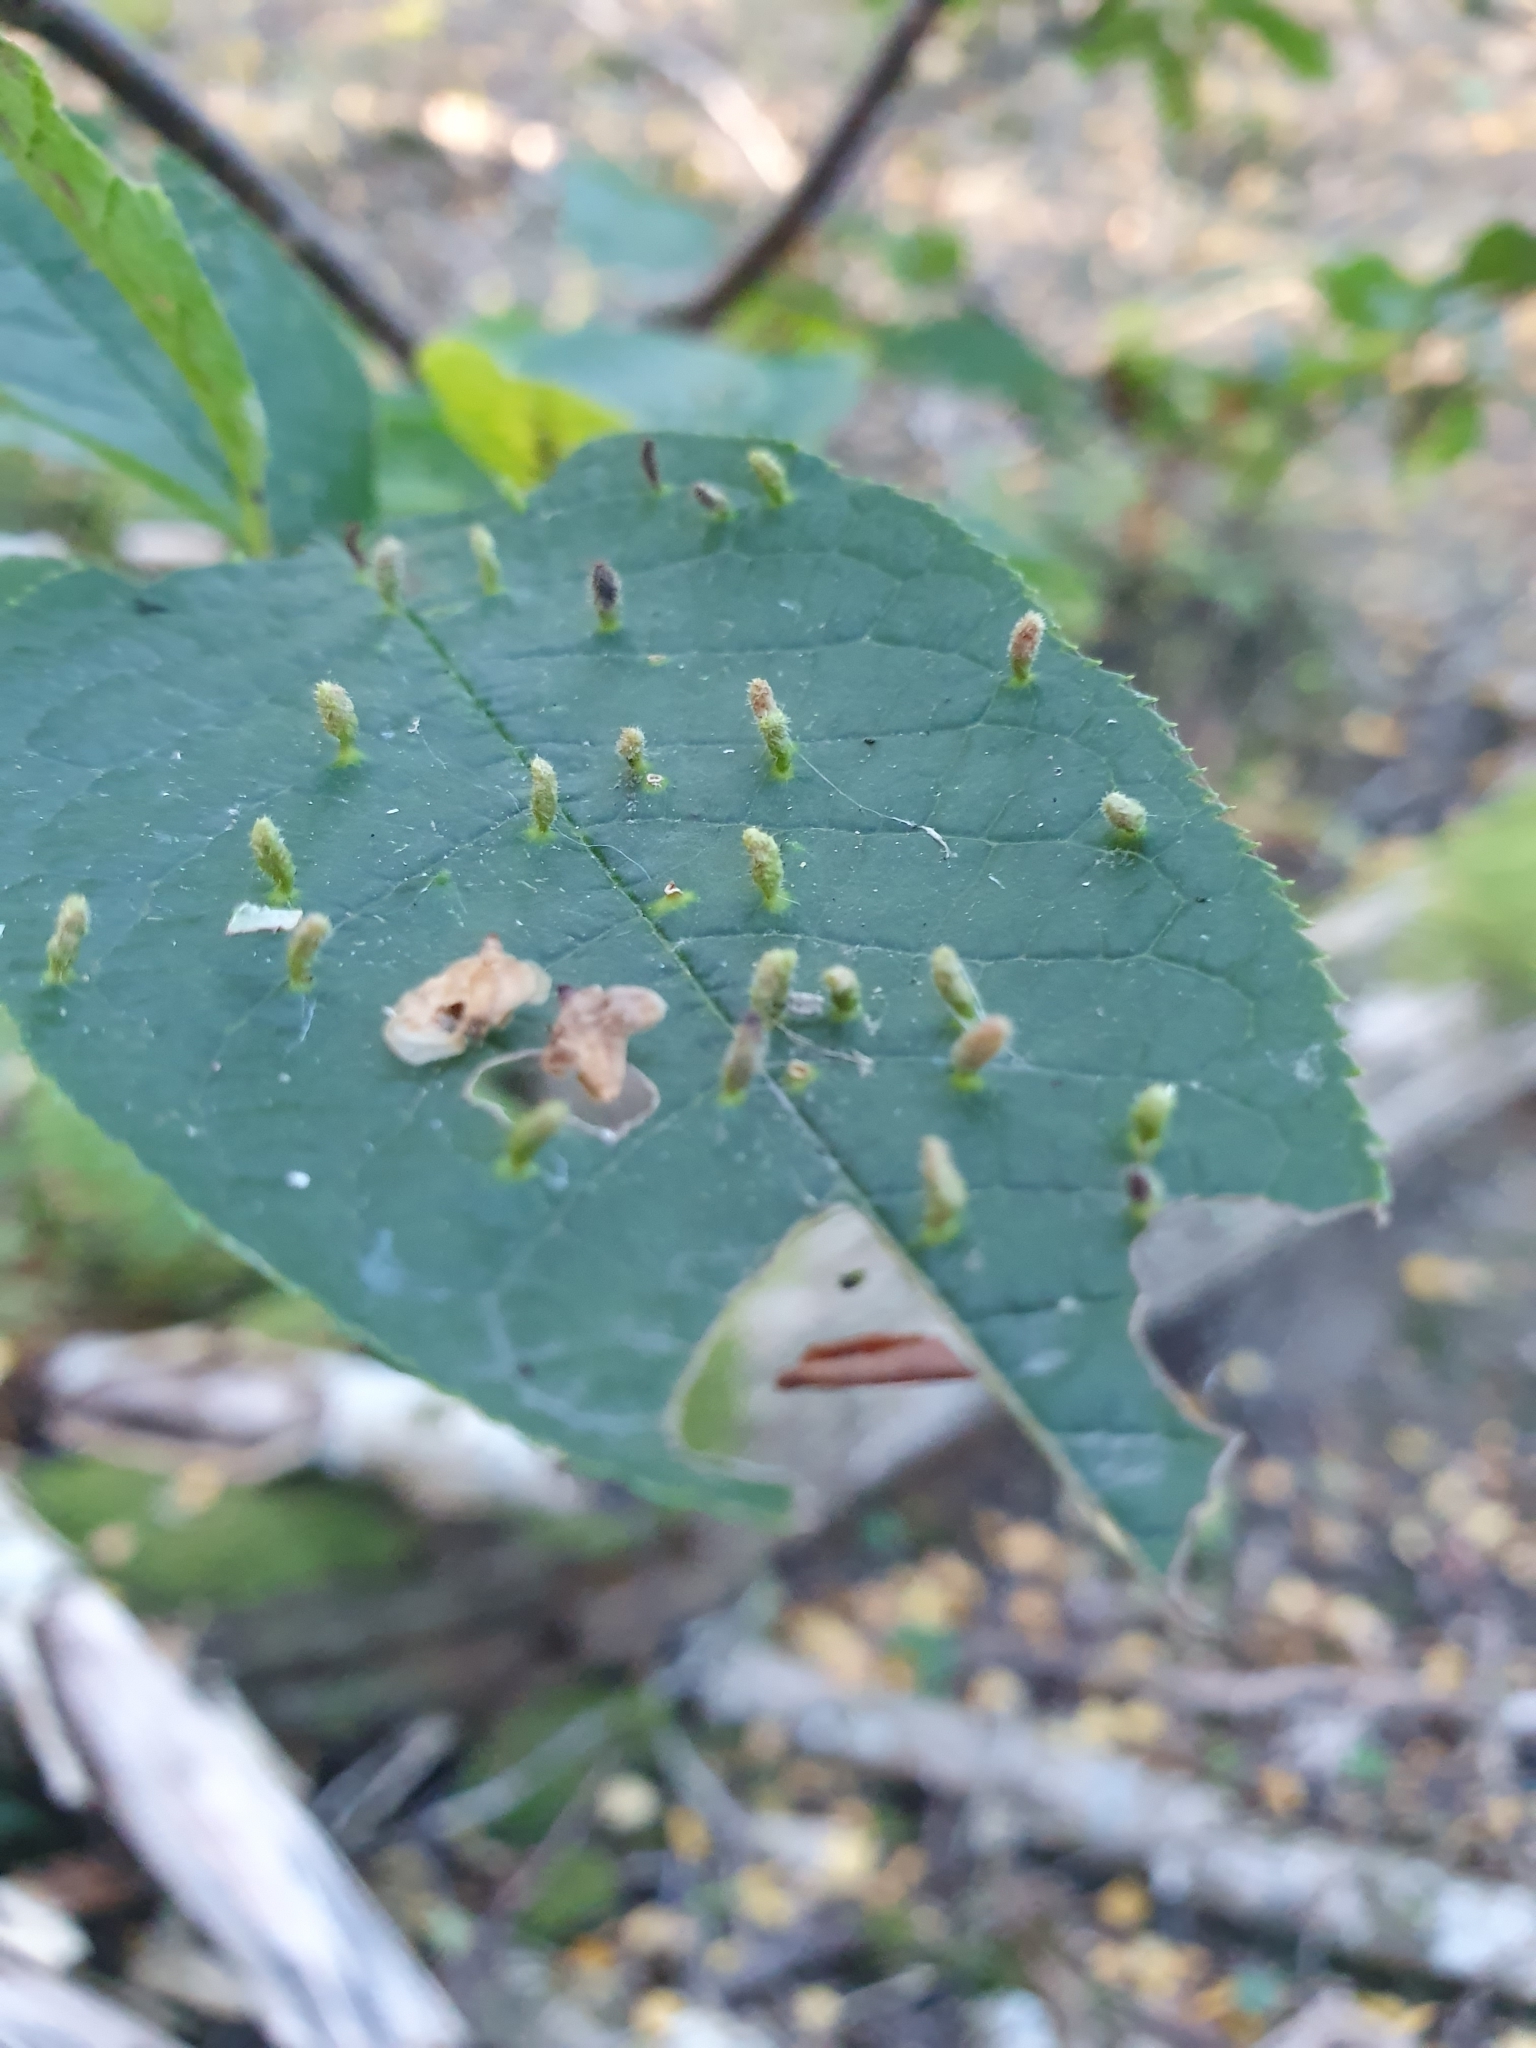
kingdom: Animalia
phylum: Arthropoda
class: Arachnida
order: Trombidiformes
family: Eriophyidae
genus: Phyllocoptes
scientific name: Phyllocoptes eupadi
